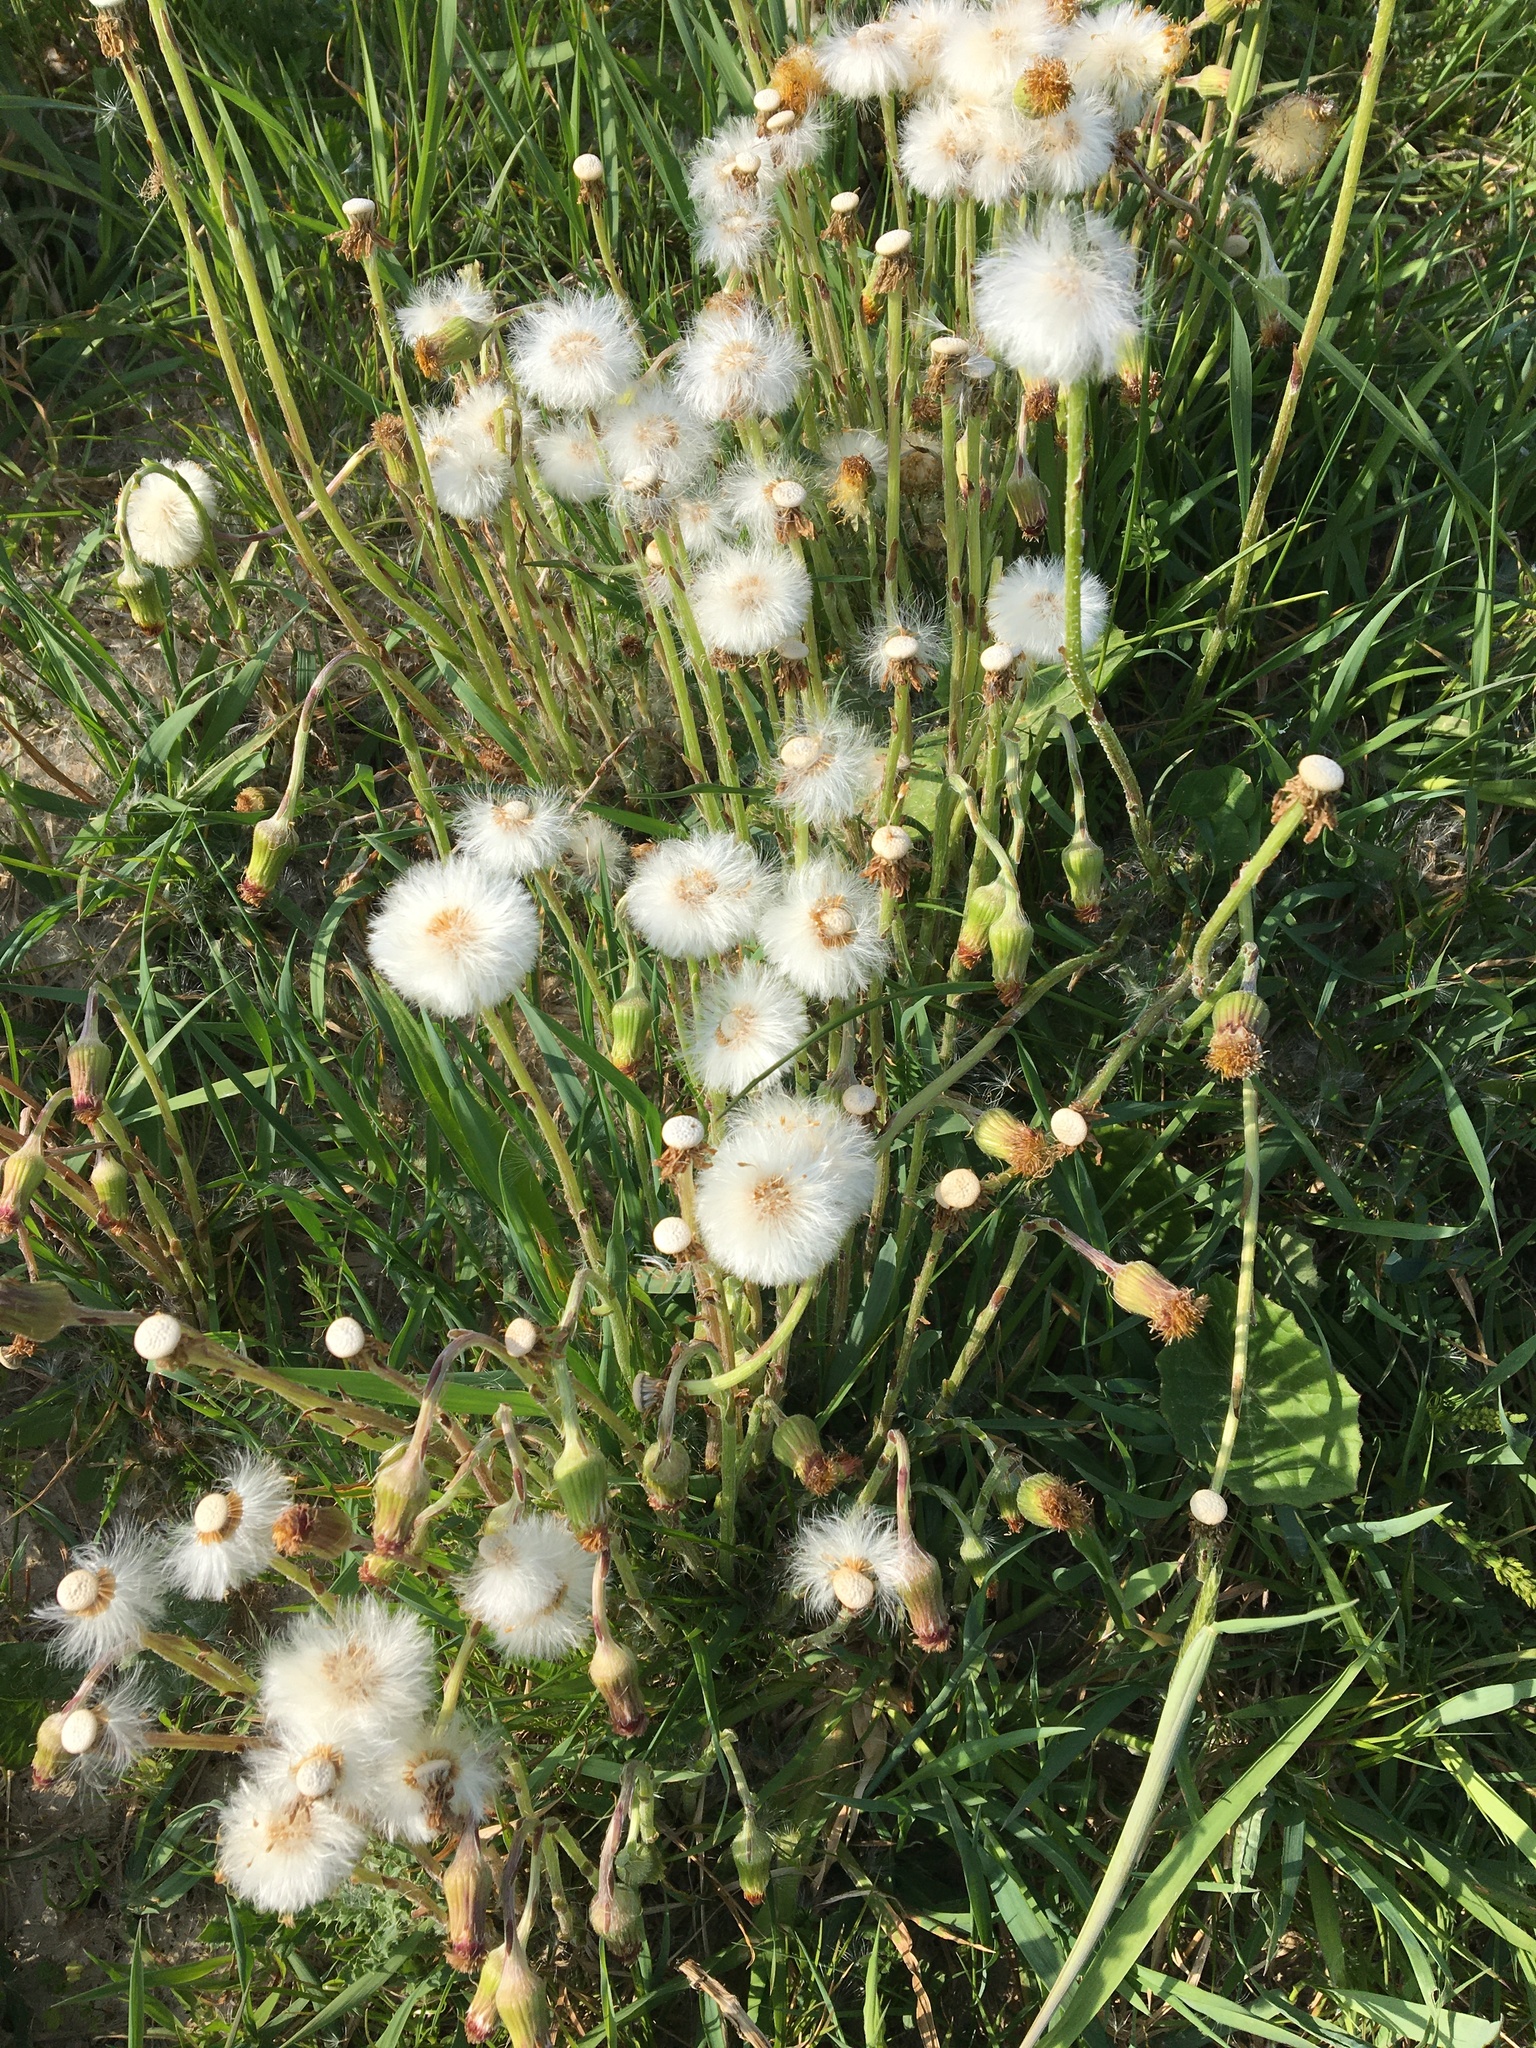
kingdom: Plantae
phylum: Tracheophyta
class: Magnoliopsida
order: Asterales
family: Asteraceae
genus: Tussilago
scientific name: Tussilago farfara
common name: Coltsfoot
